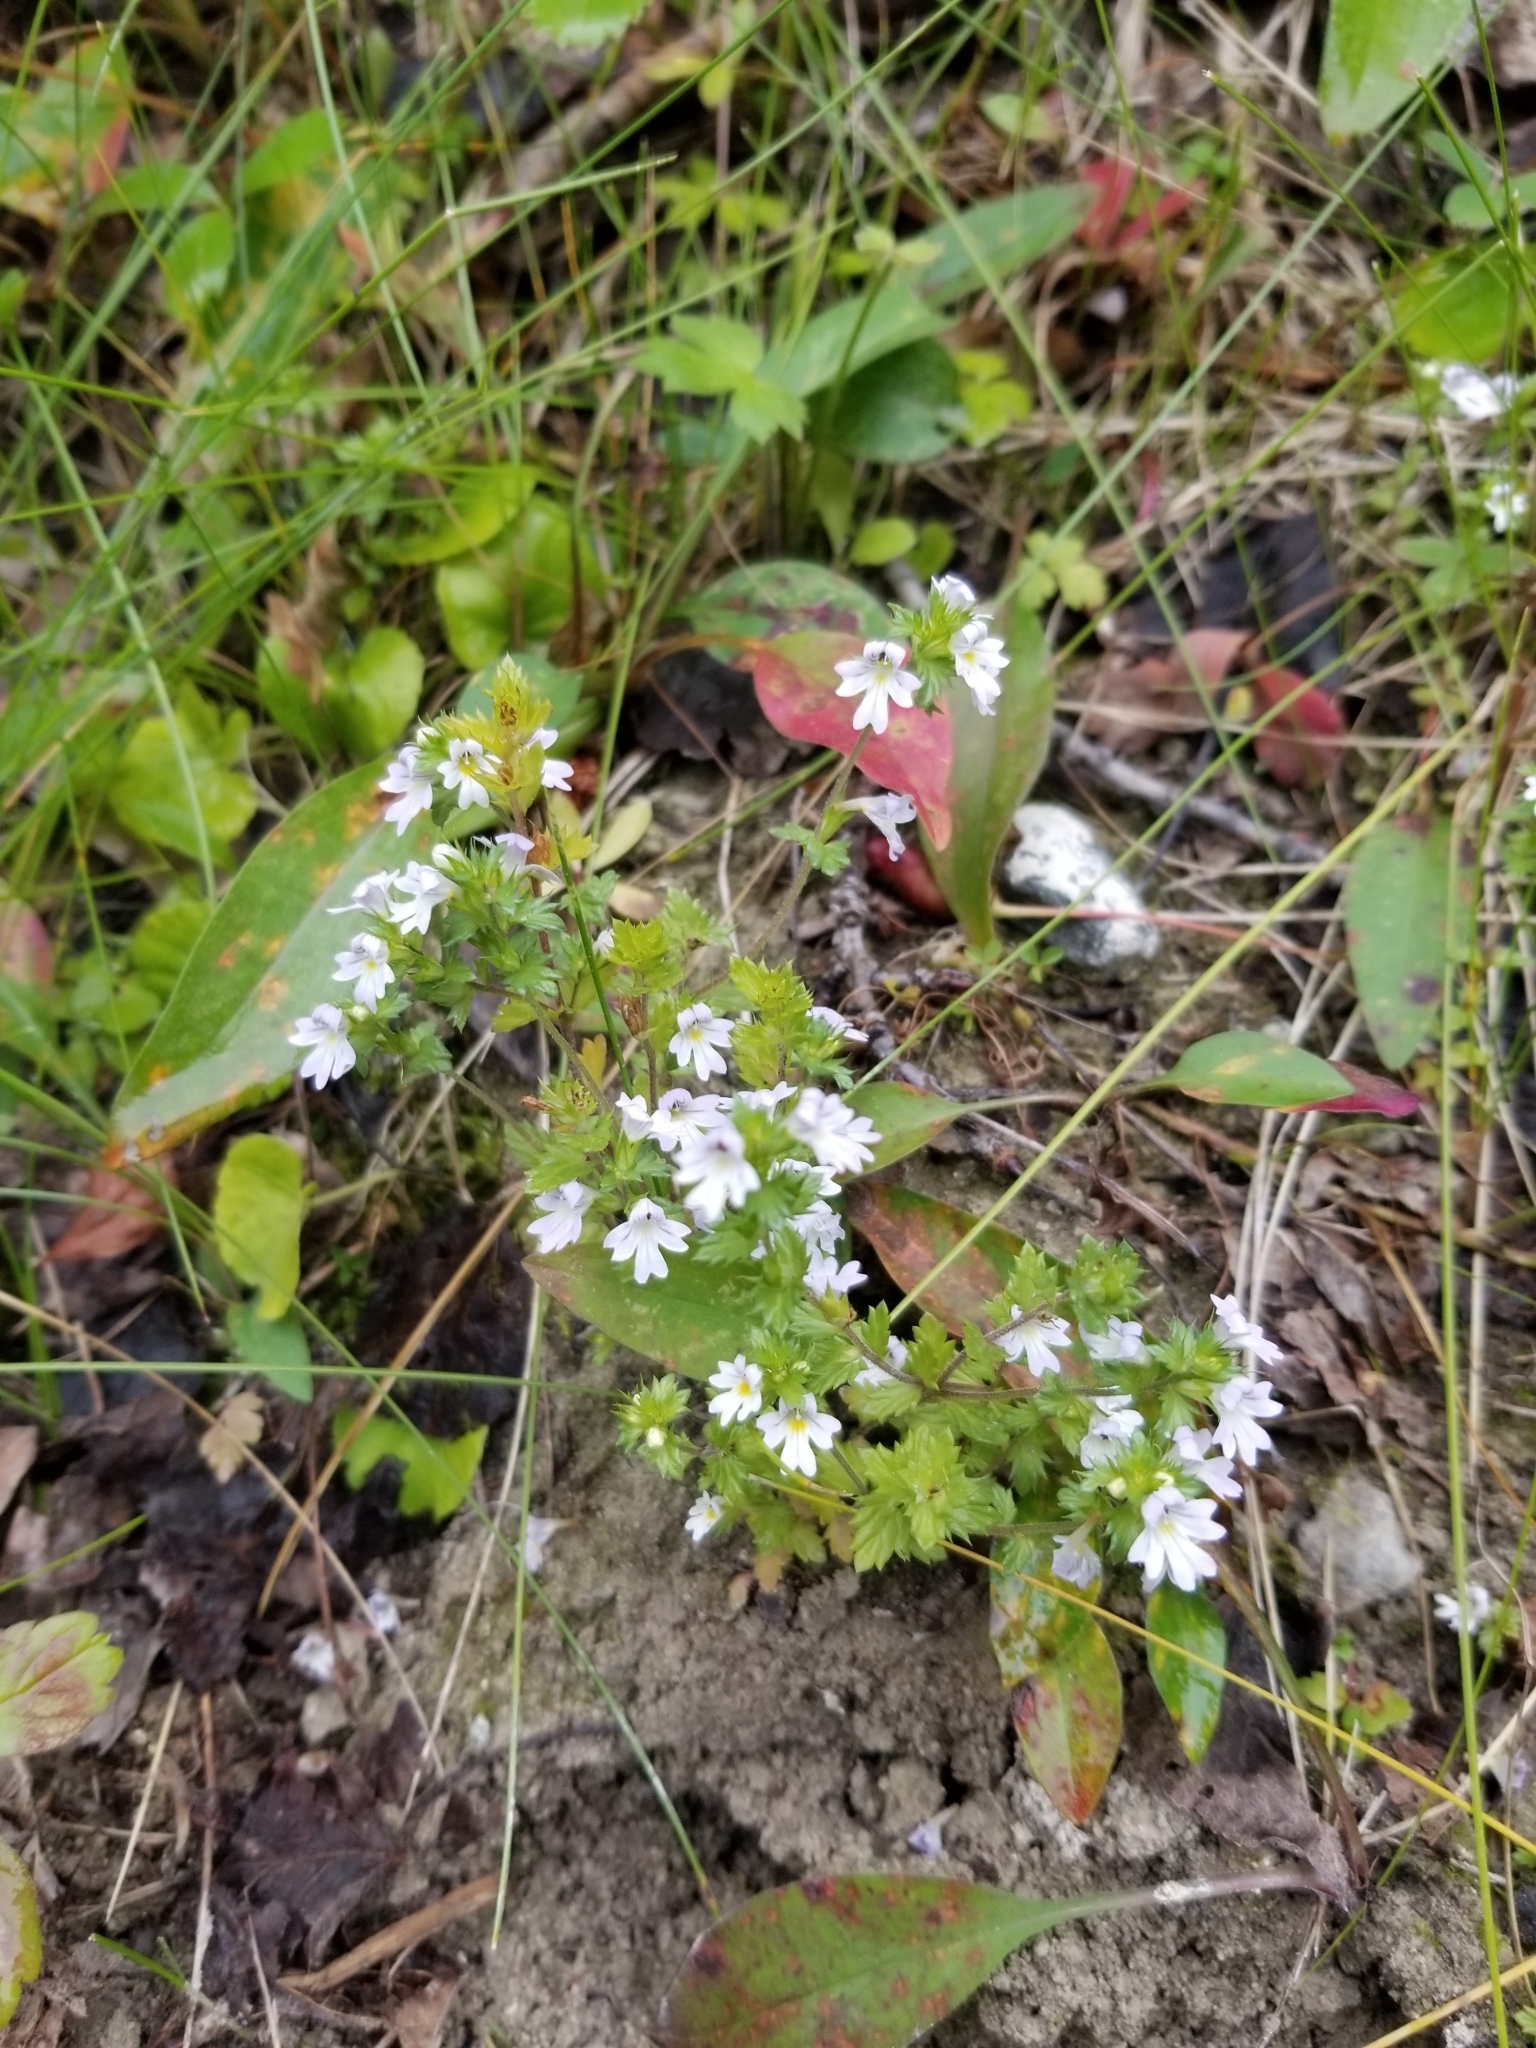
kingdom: Plantae
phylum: Tracheophyta
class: Magnoliopsida
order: Lamiales
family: Orobanchaceae
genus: Euphrasia
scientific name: Euphrasia nemorosa
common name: Common eyebright
